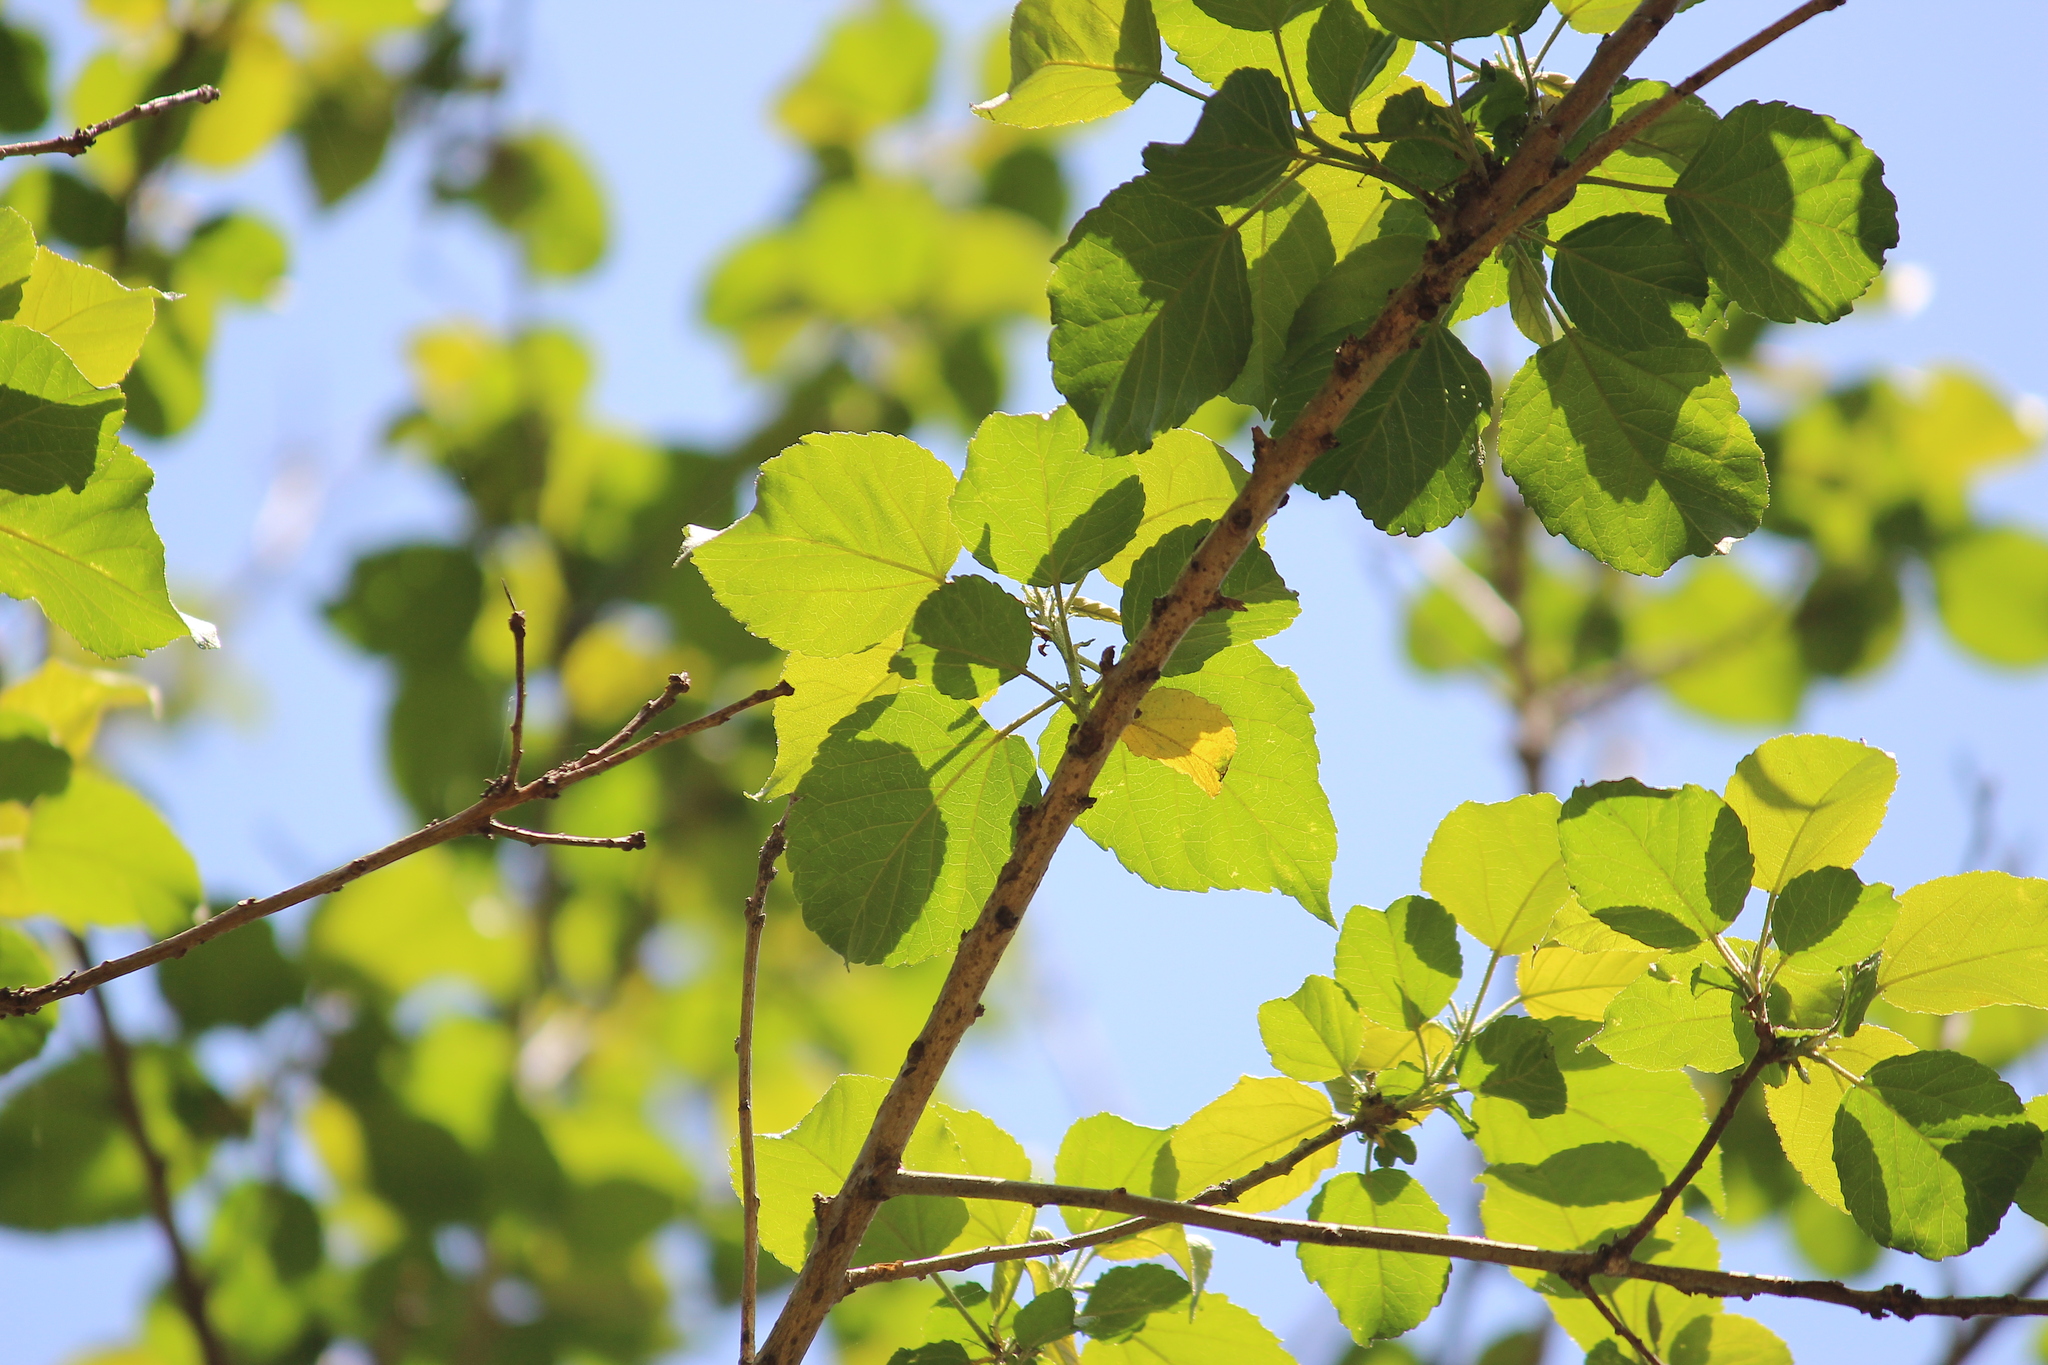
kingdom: Plantae
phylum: Tracheophyta
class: Magnoliopsida
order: Malpighiales
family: Euphorbiaceae
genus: Croton
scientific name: Croton sylvaticus
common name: Forest croton
